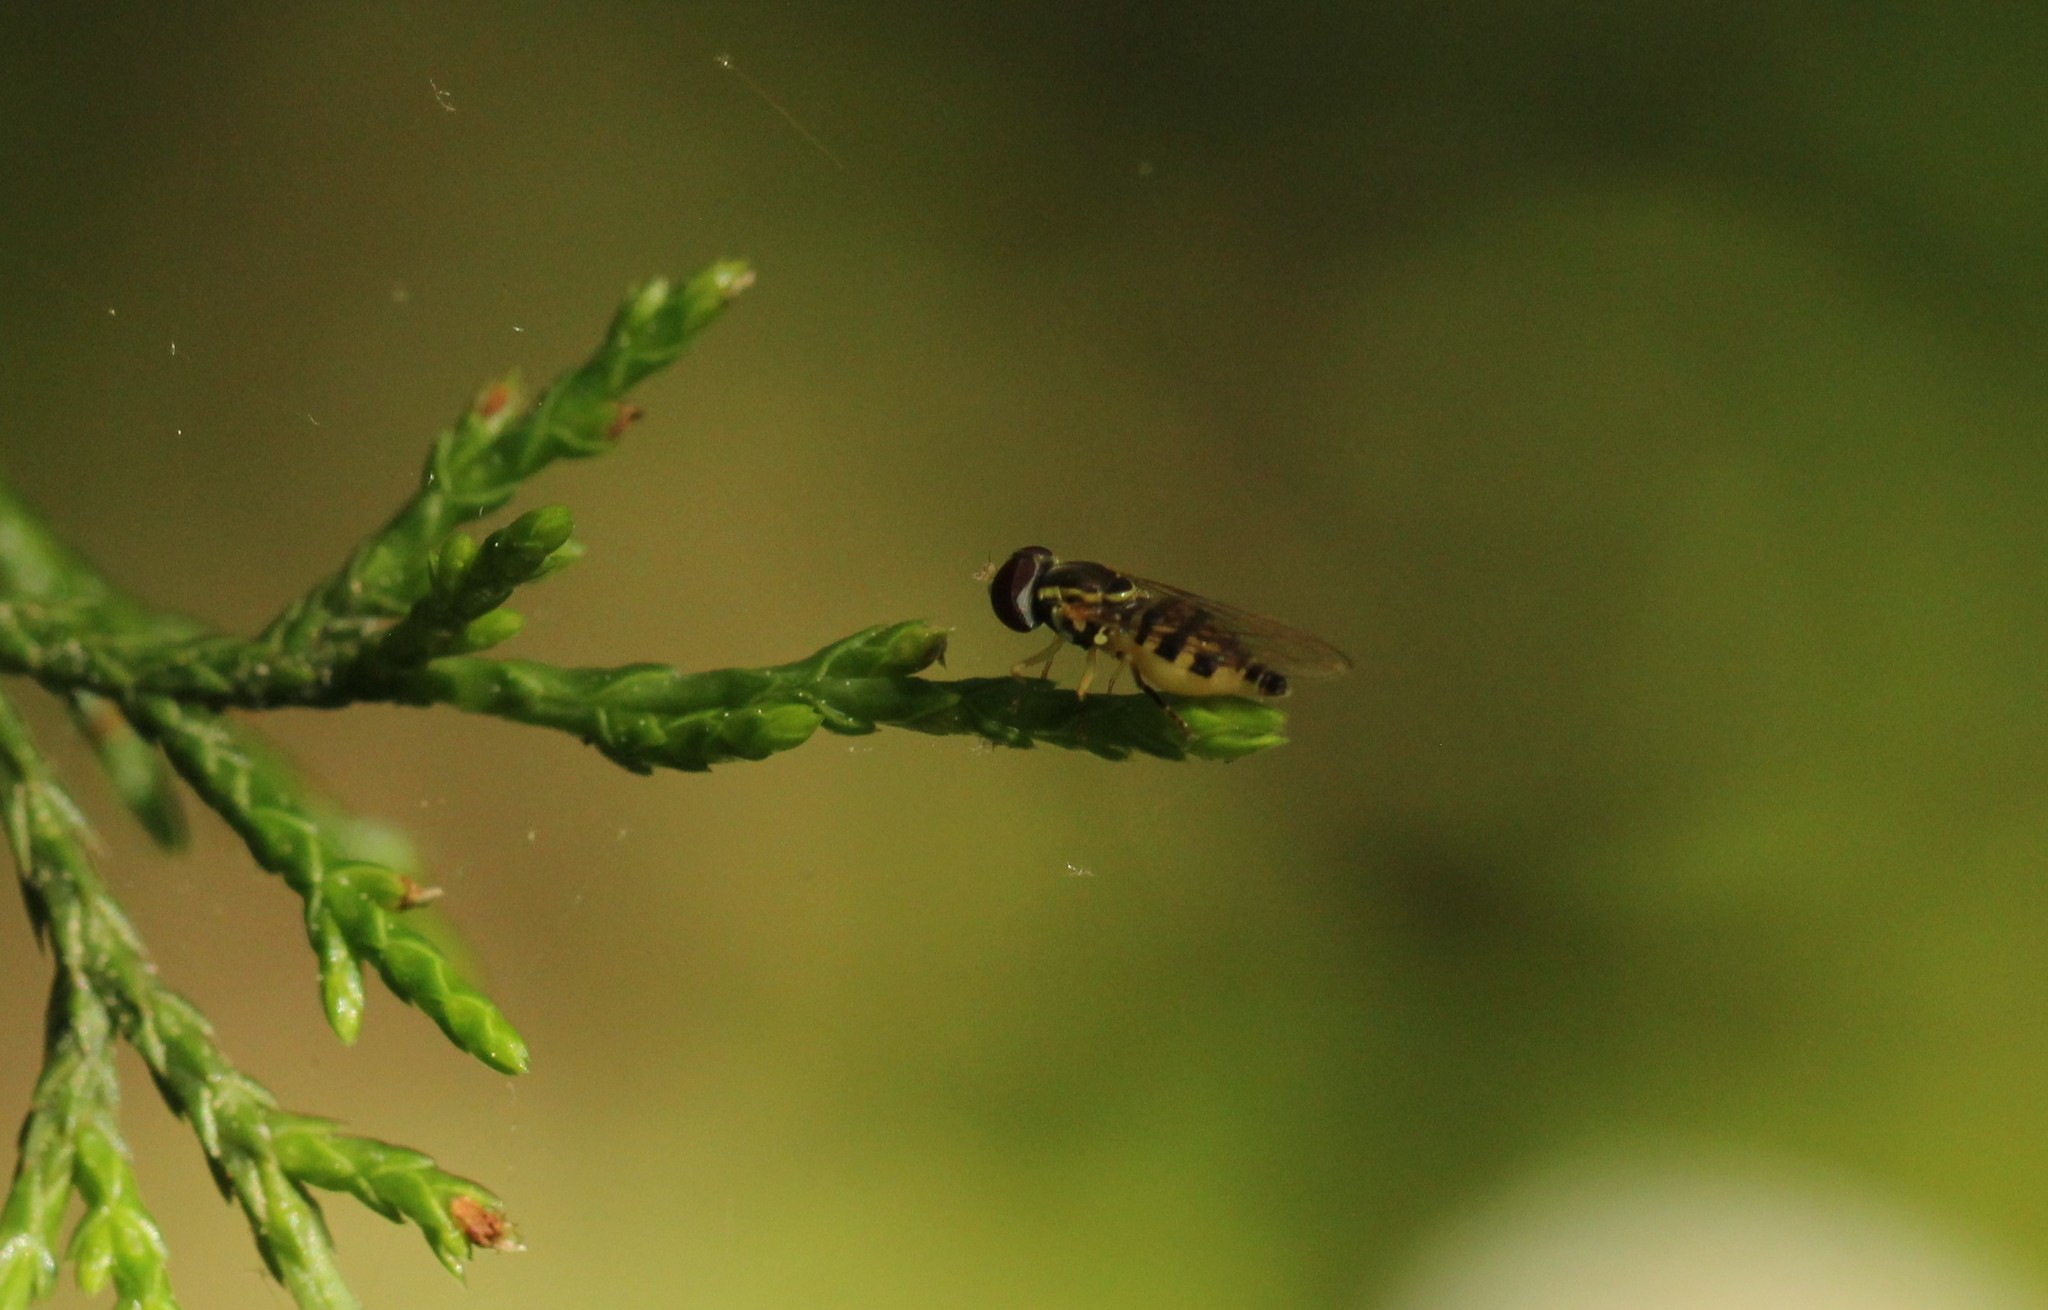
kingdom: Animalia
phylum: Arthropoda
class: Insecta
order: Diptera
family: Syrphidae
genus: Toxomerus
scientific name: Toxomerus geminatus
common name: Eastern calligrapher
